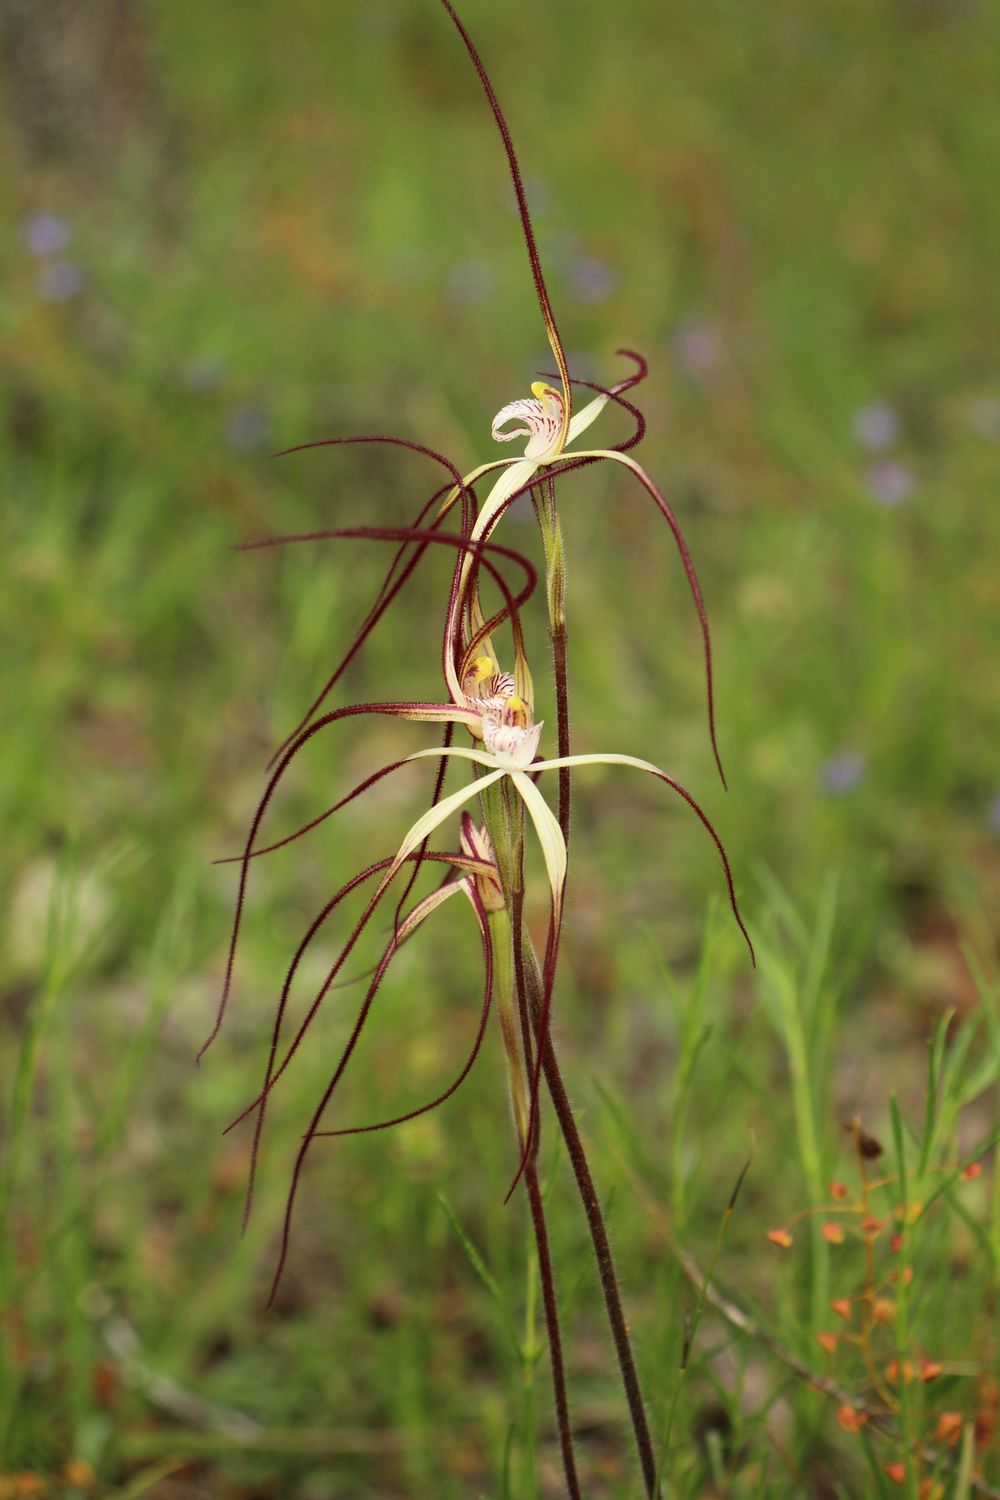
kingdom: Plantae
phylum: Tracheophyta
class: Liliopsida
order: Asparagales
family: Orchidaceae
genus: Caladenia
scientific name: Caladenia polychroma
